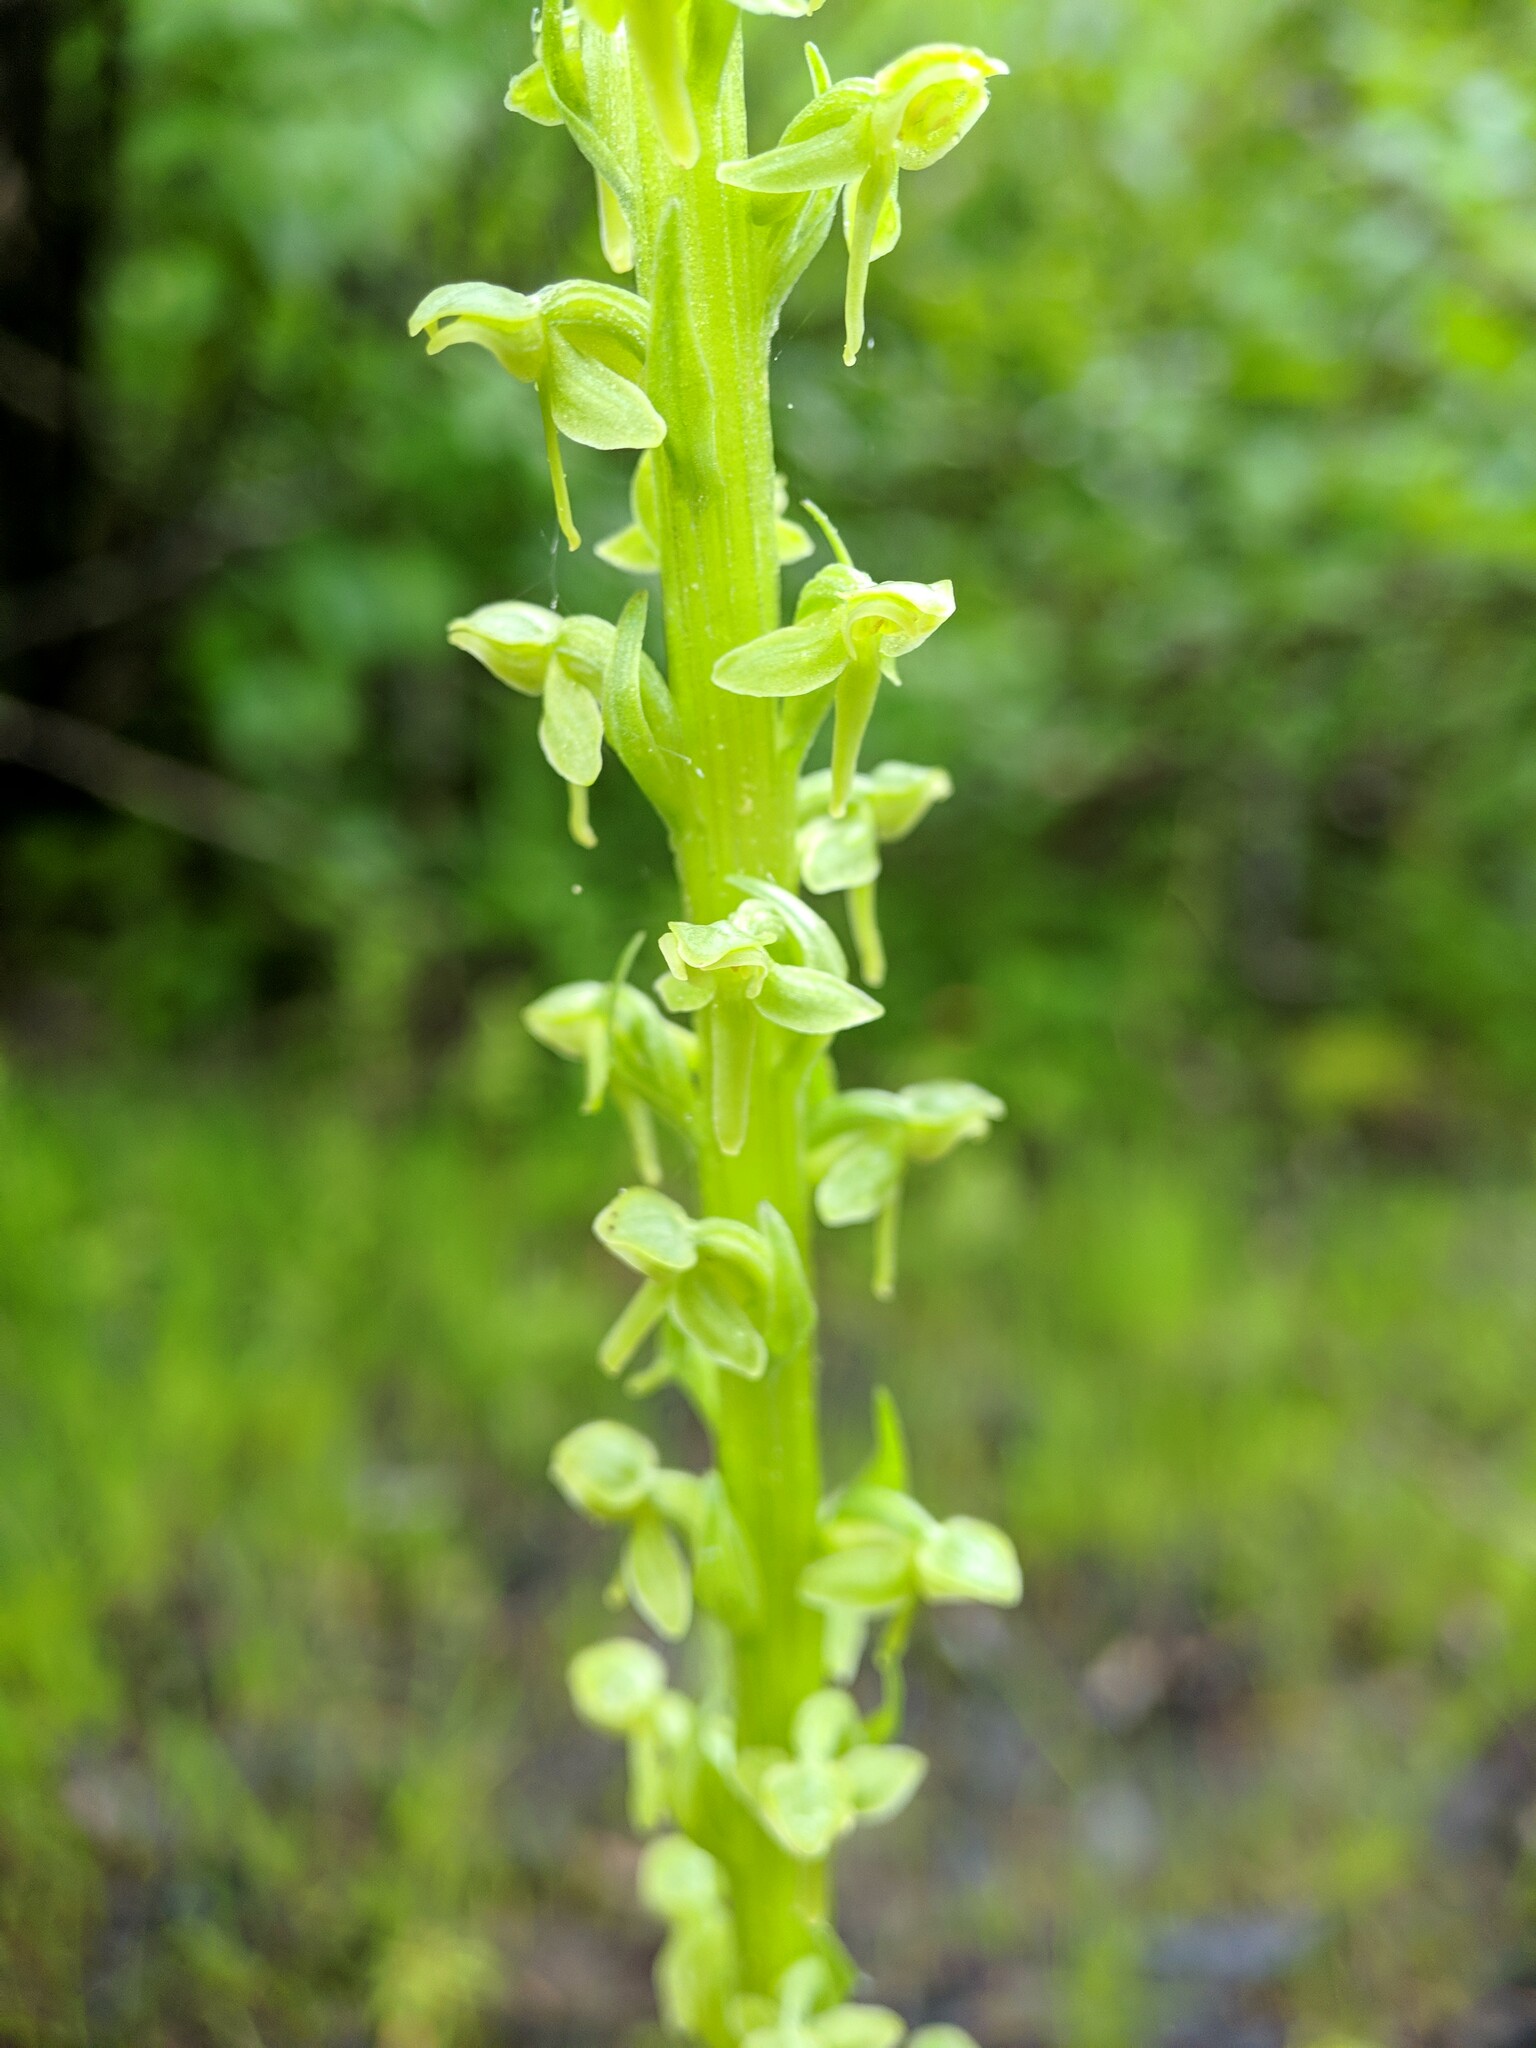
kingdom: Plantae
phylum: Tracheophyta
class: Liliopsida
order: Asparagales
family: Orchidaceae
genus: Platanthera
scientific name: Platanthera stricta
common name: Slender bog orchid
